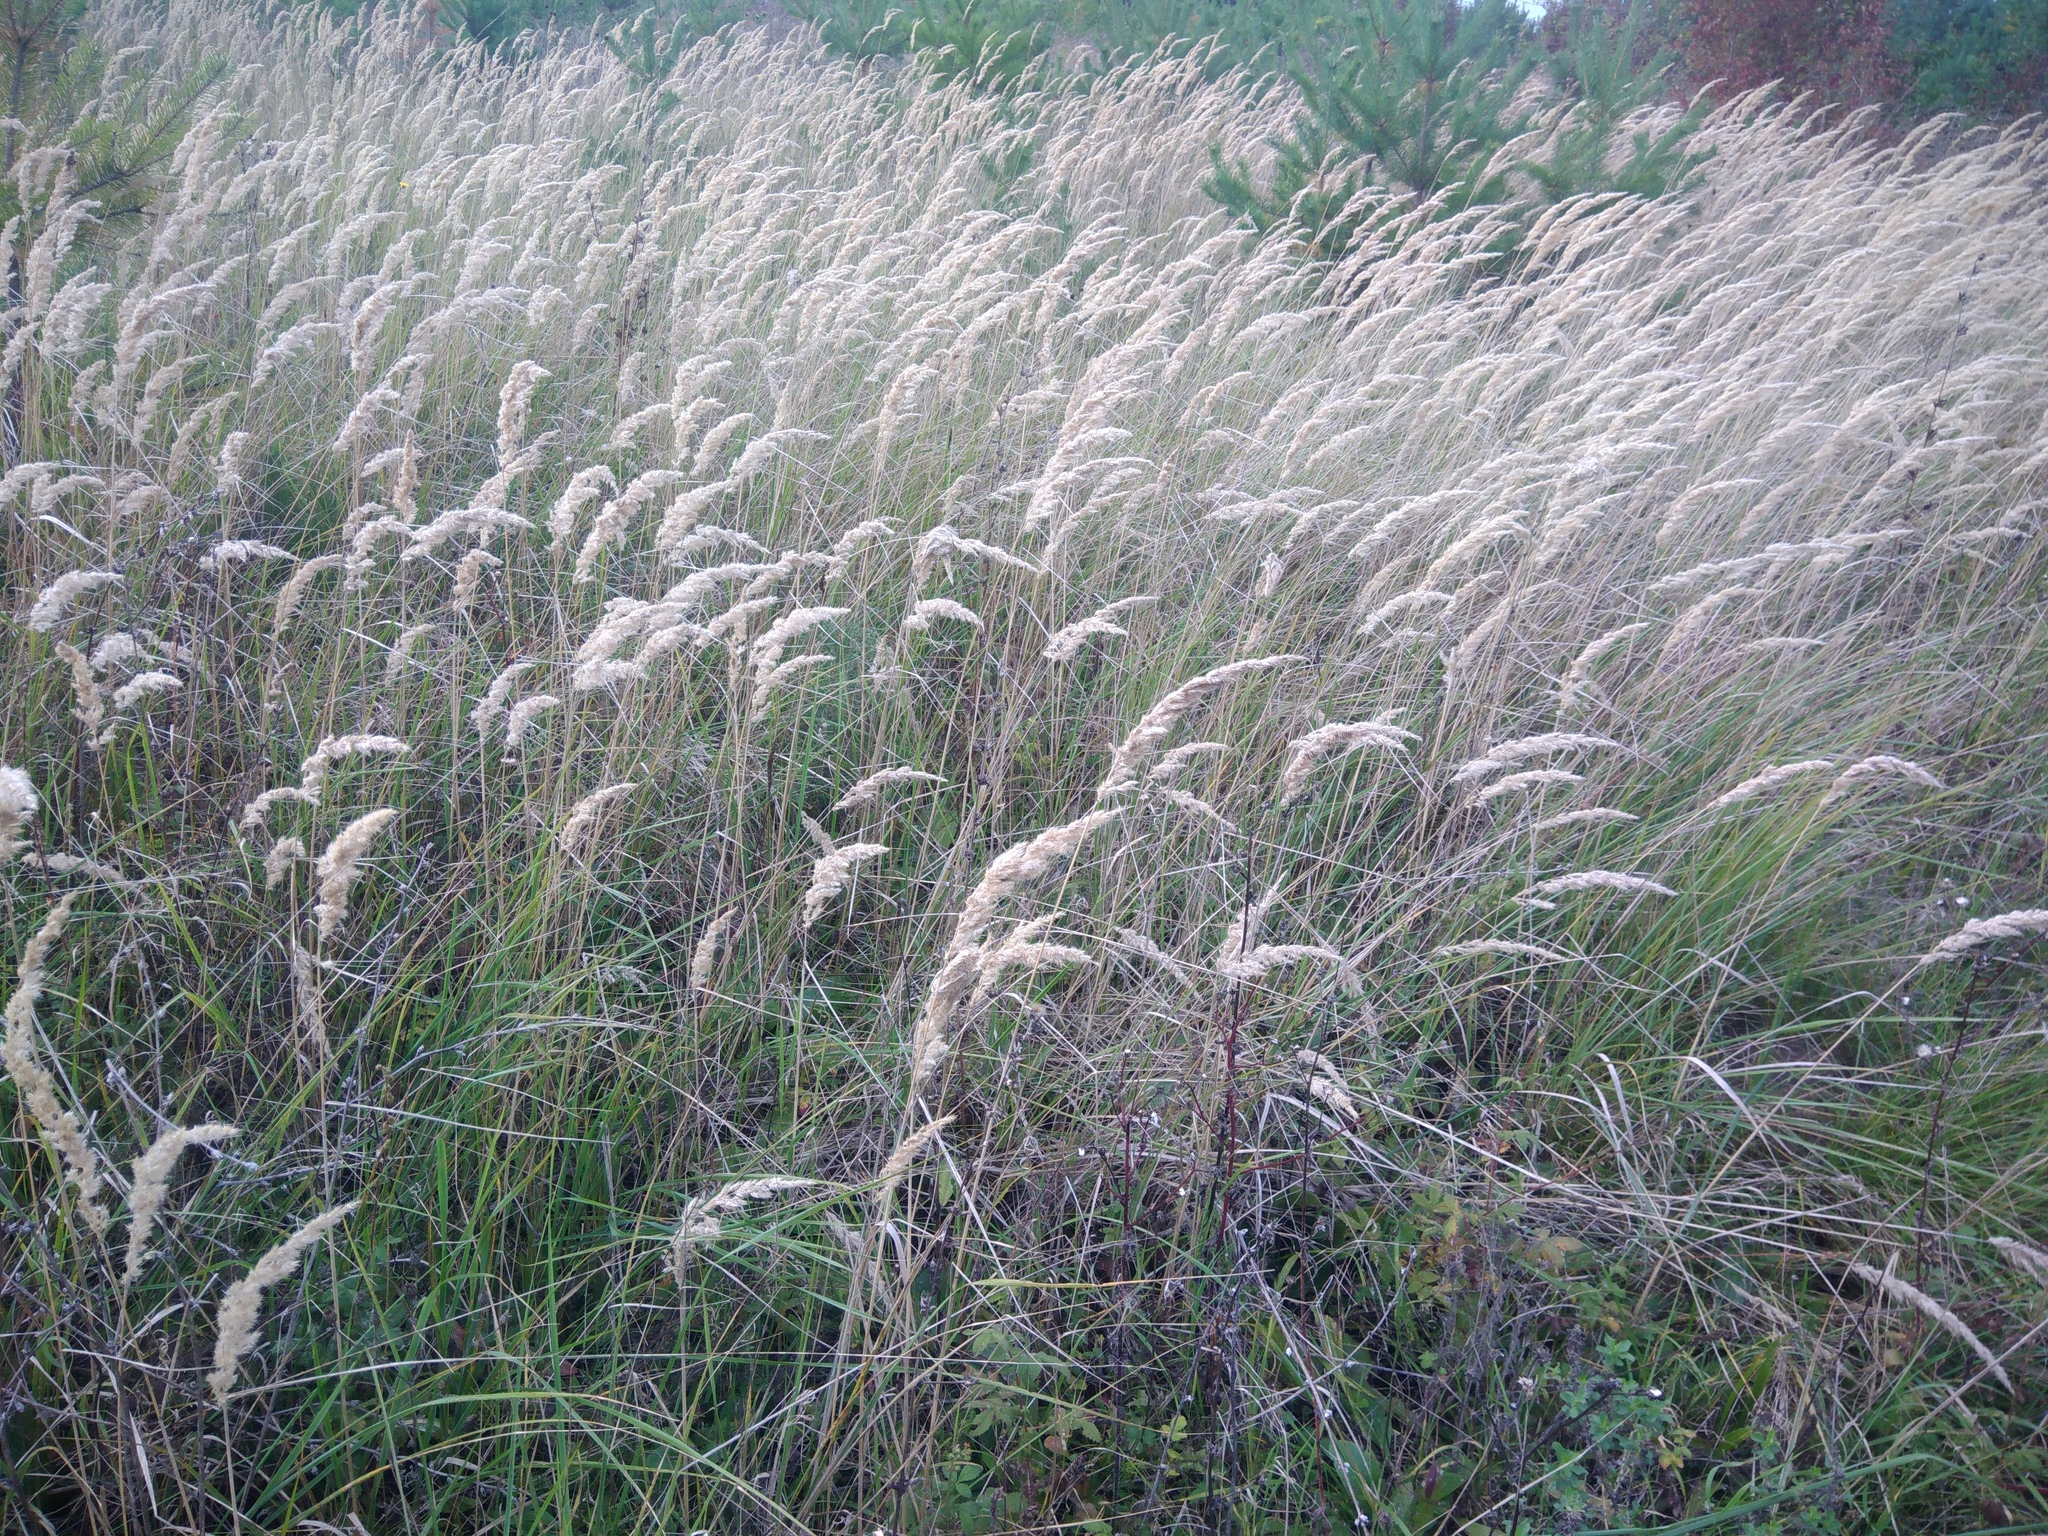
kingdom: Plantae
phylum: Tracheophyta
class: Liliopsida
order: Poales
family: Poaceae
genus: Calamagrostis
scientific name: Calamagrostis epigejos
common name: Wood small-reed
